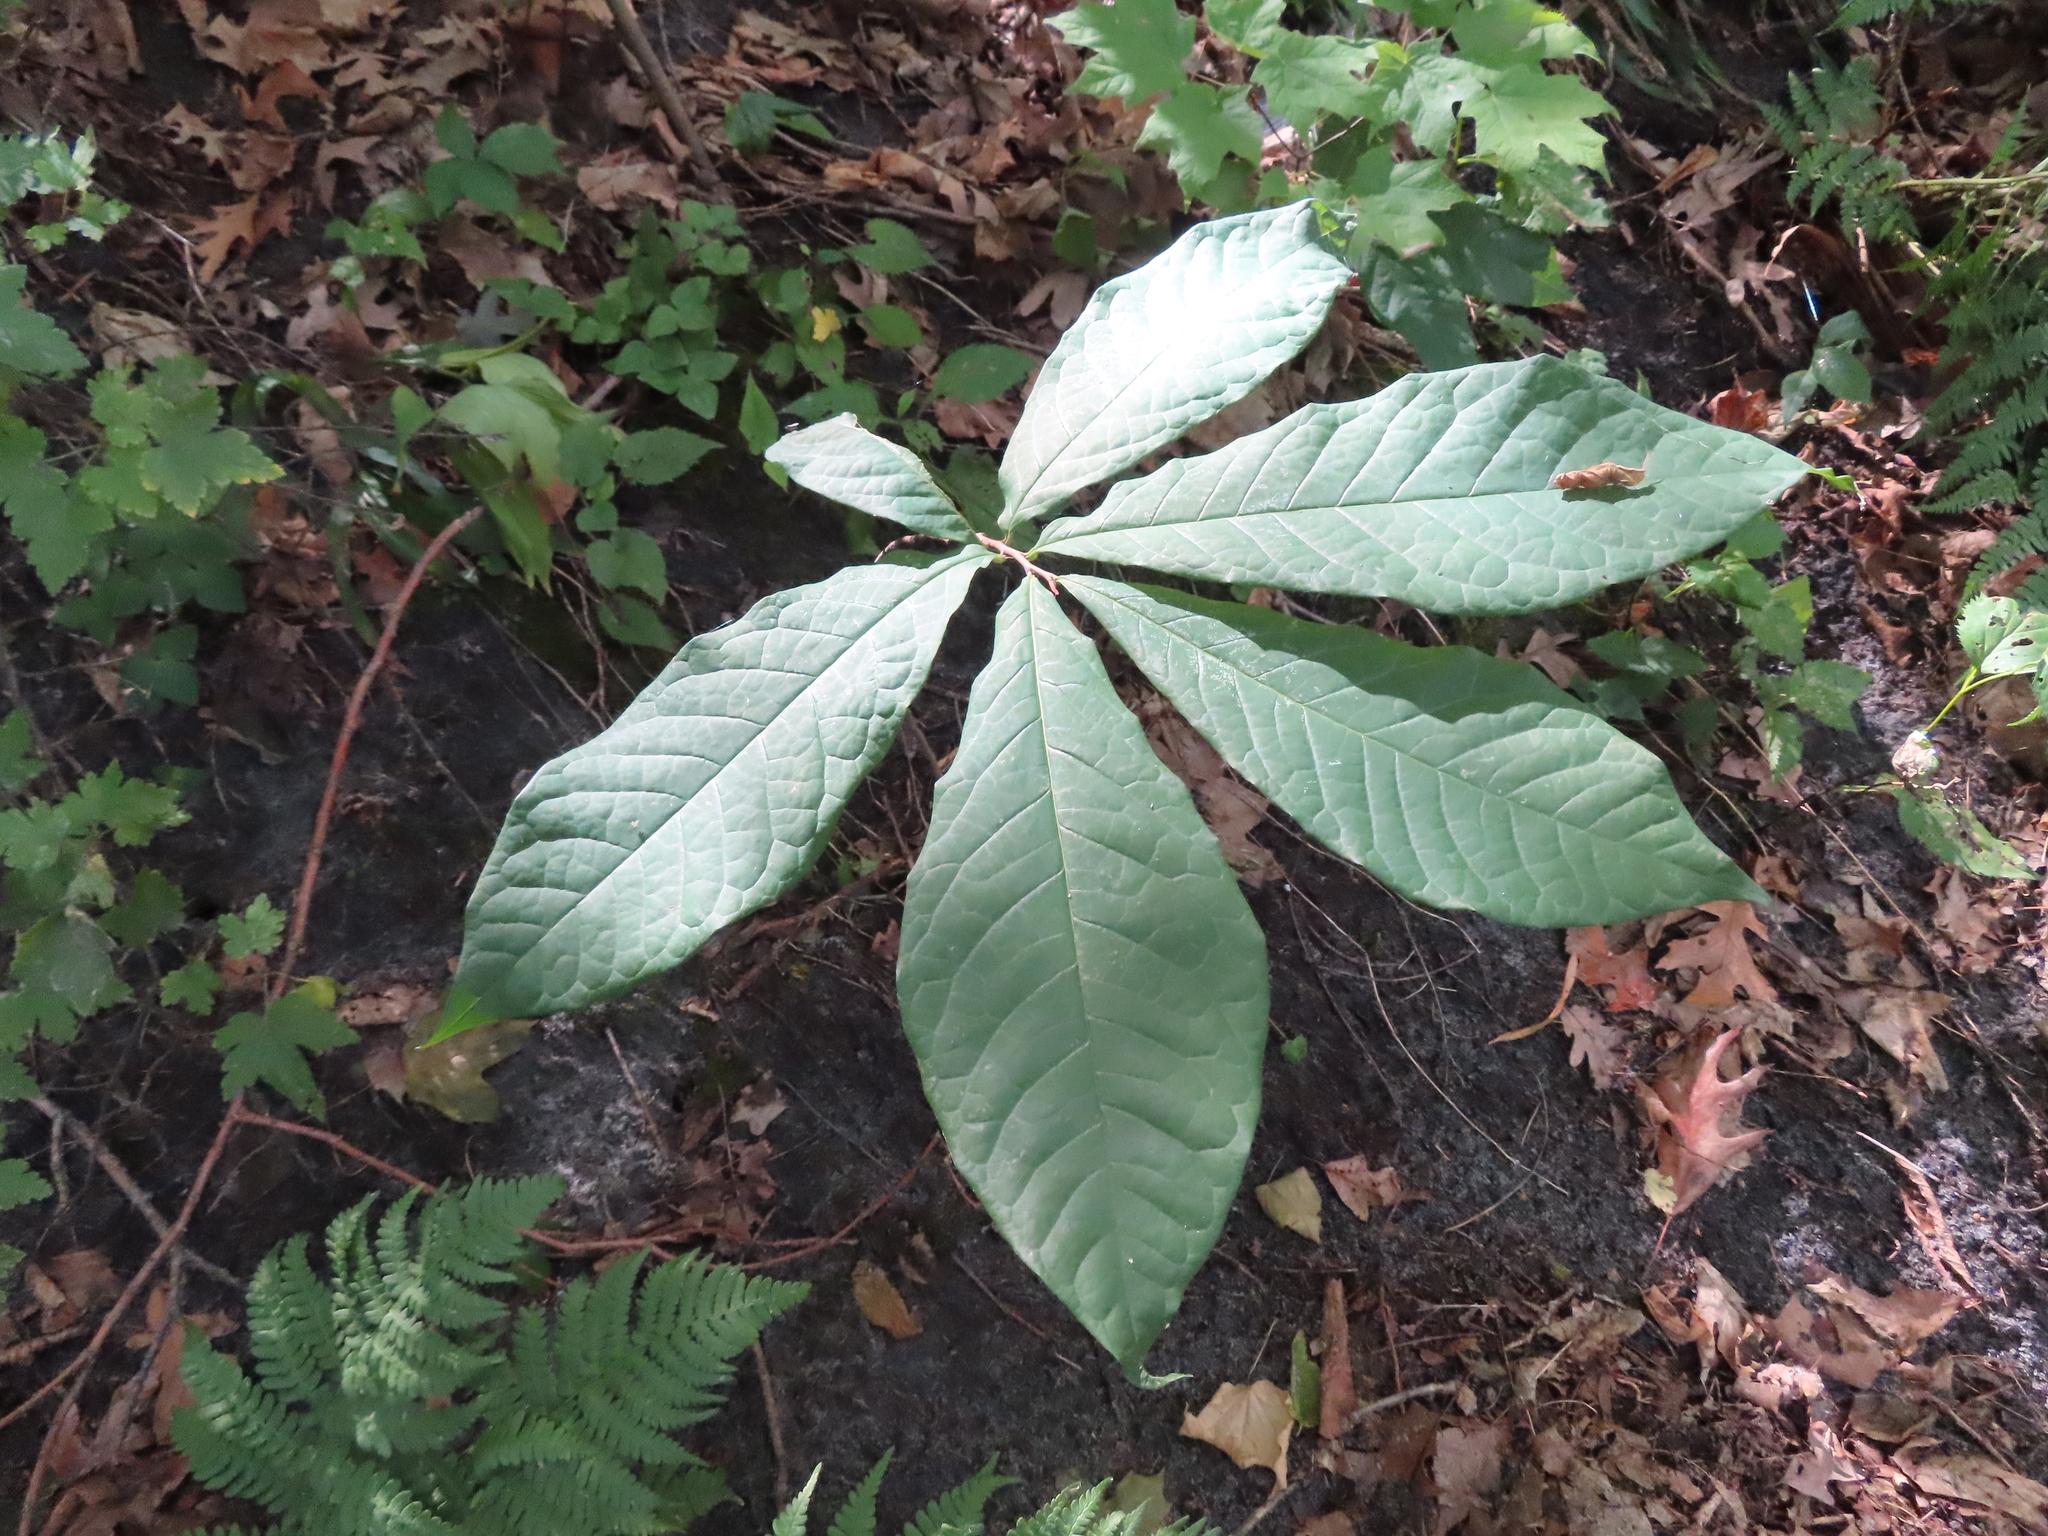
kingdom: Plantae
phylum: Tracheophyta
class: Magnoliopsida
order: Magnoliales
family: Annonaceae
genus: Asimina
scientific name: Asimina triloba
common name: Dog-banana
